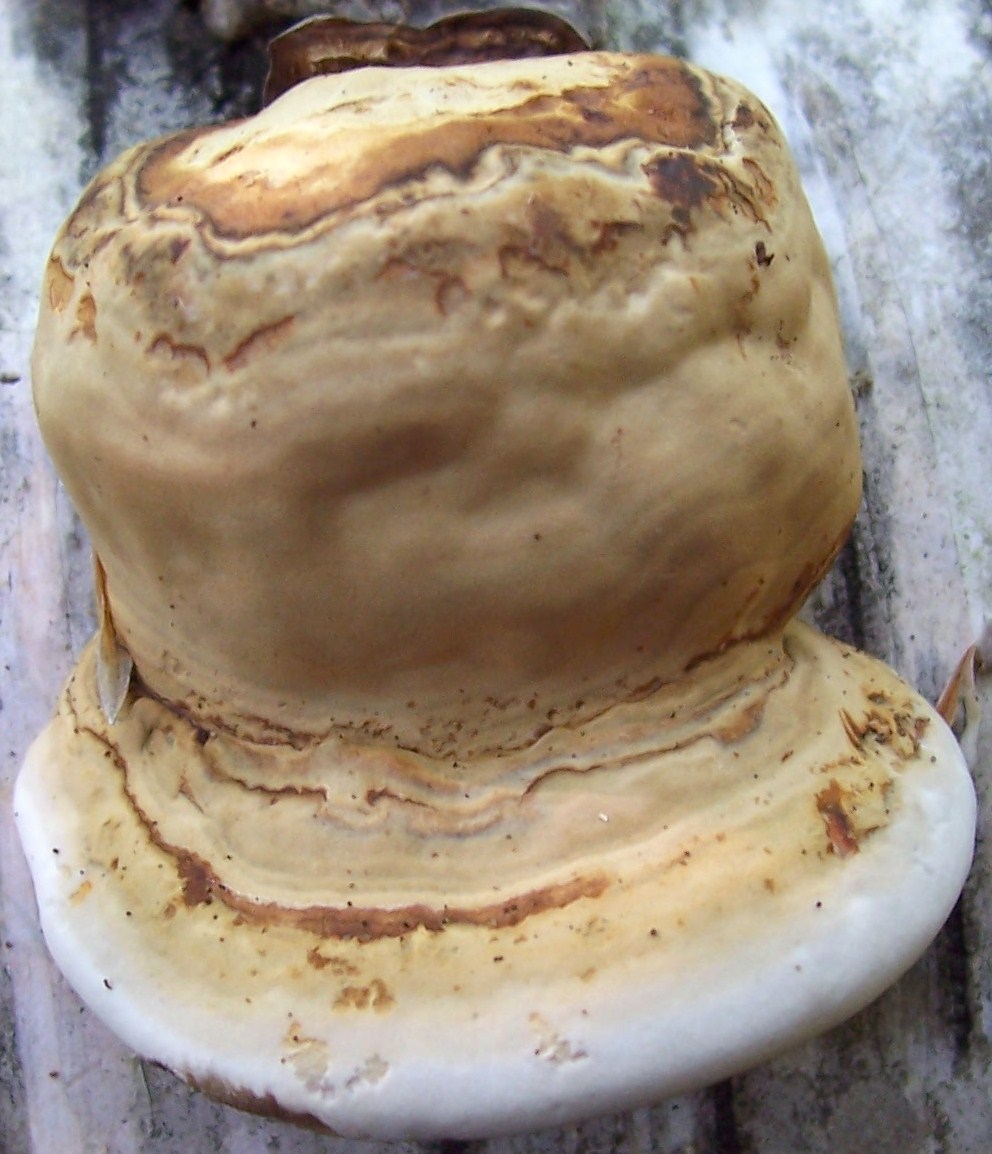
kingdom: Fungi
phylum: Basidiomycota
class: Agaricomycetes
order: Polyporales
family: Polyporaceae
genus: Fomes
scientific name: Fomes fomentarius
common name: Hoof fungus
